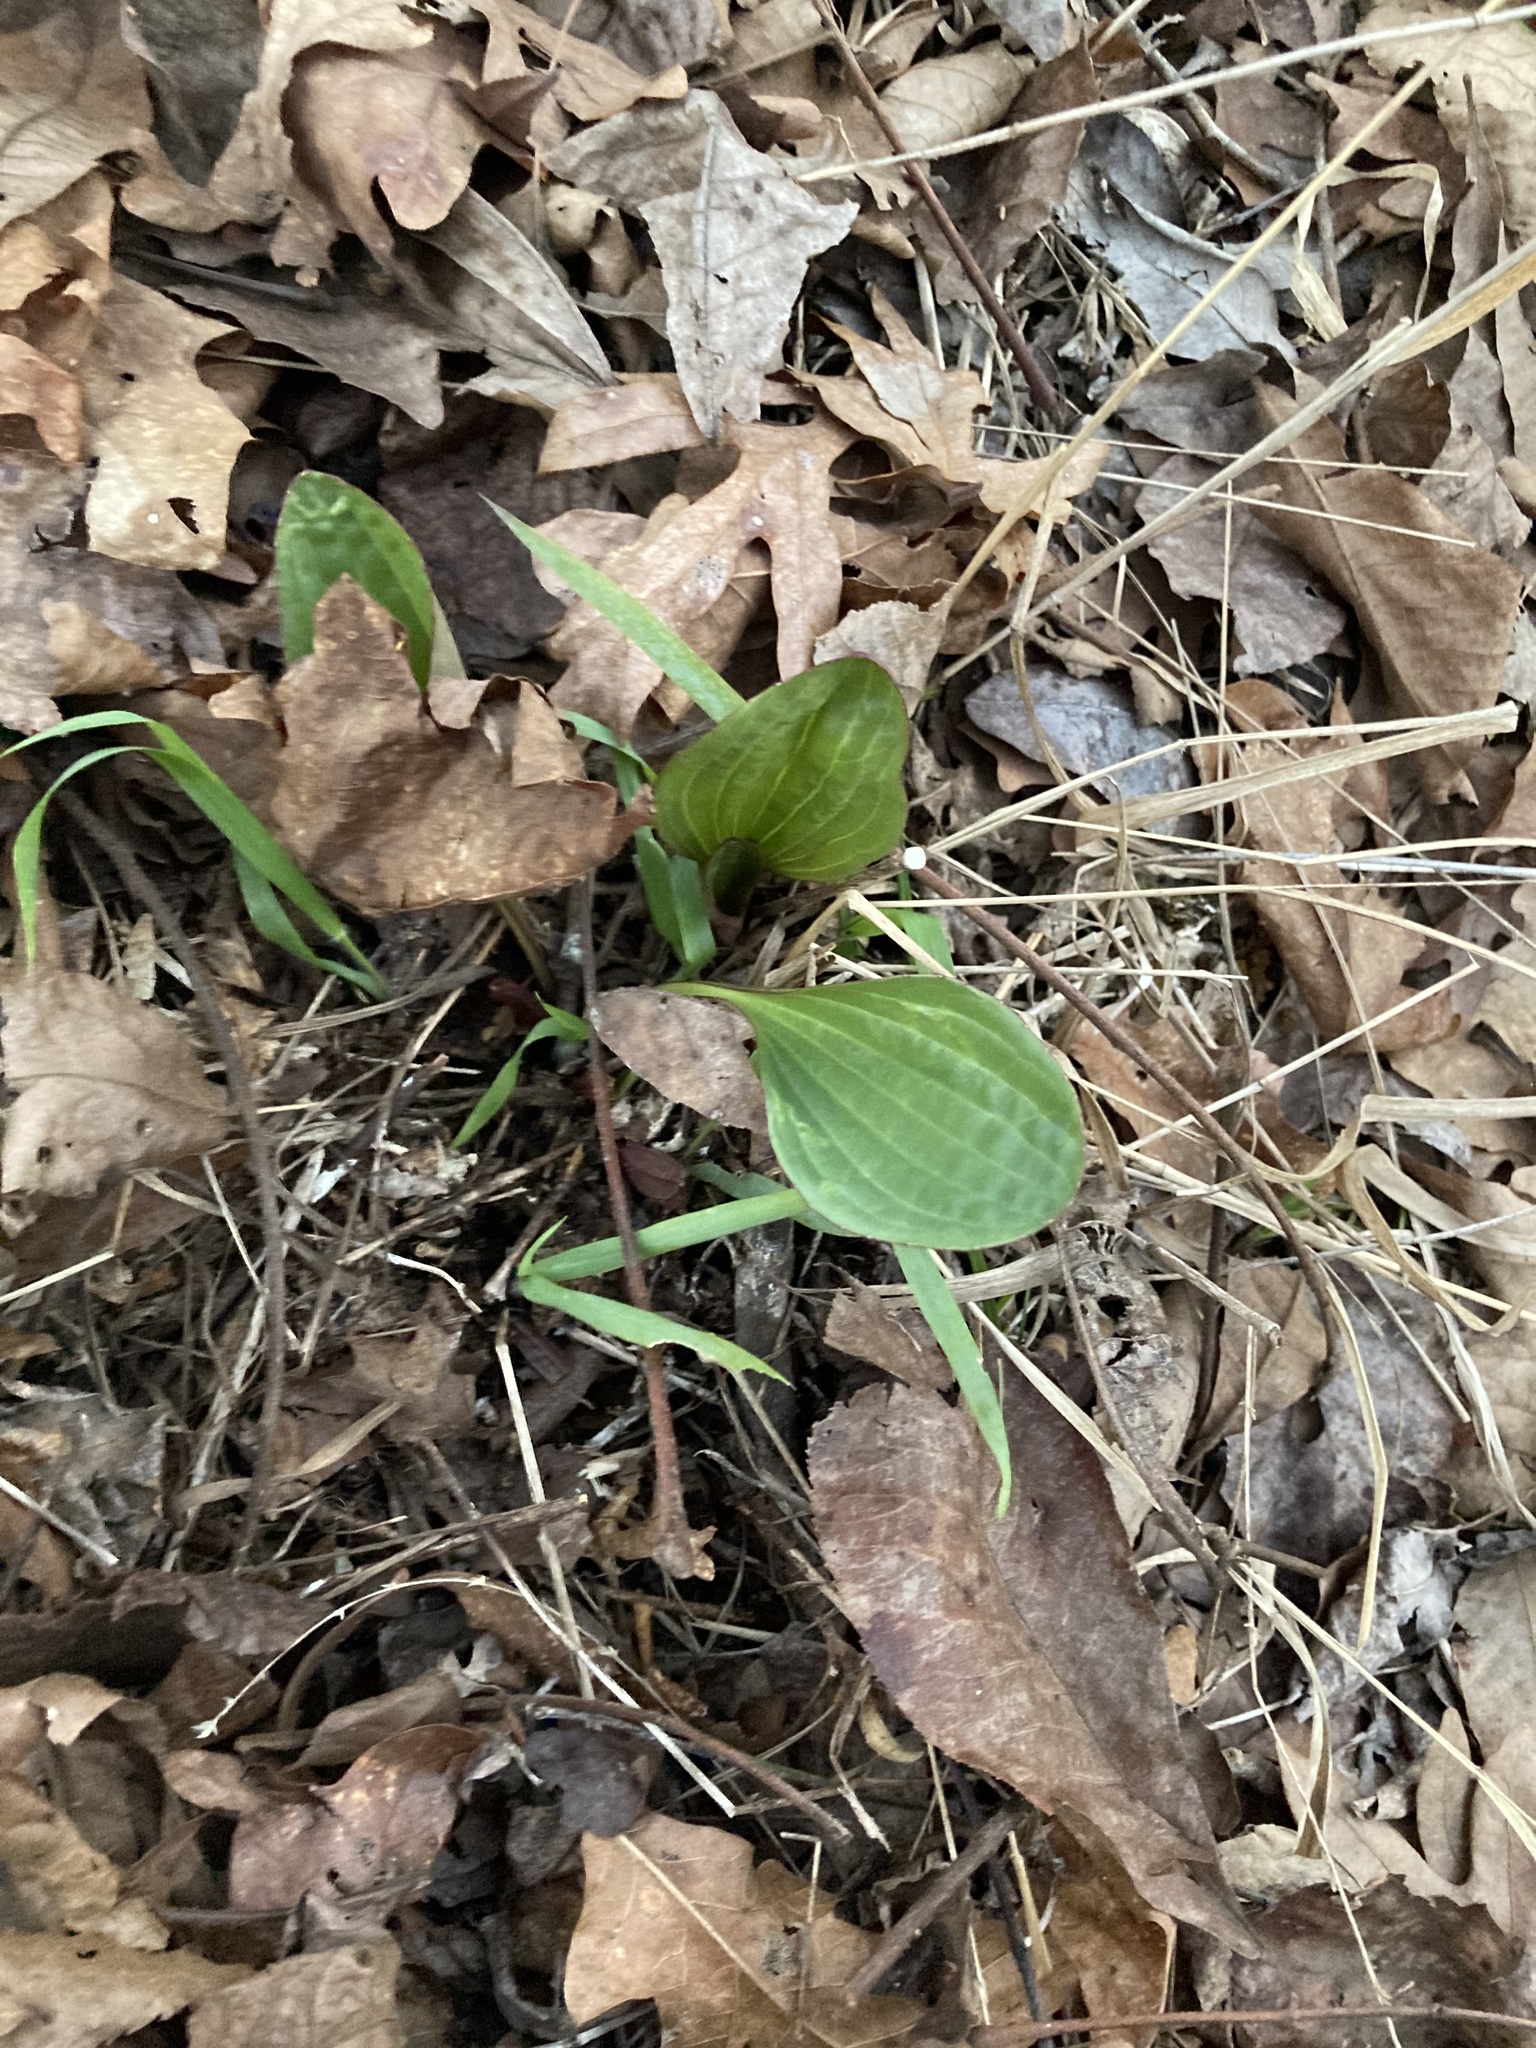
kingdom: Plantae
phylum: Tracheophyta
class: Magnoliopsida
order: Asterales
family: Asteraceae
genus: Arnoglossum
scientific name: Arnoglossum plantagineum
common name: Groove-stemmed indian-plantain
